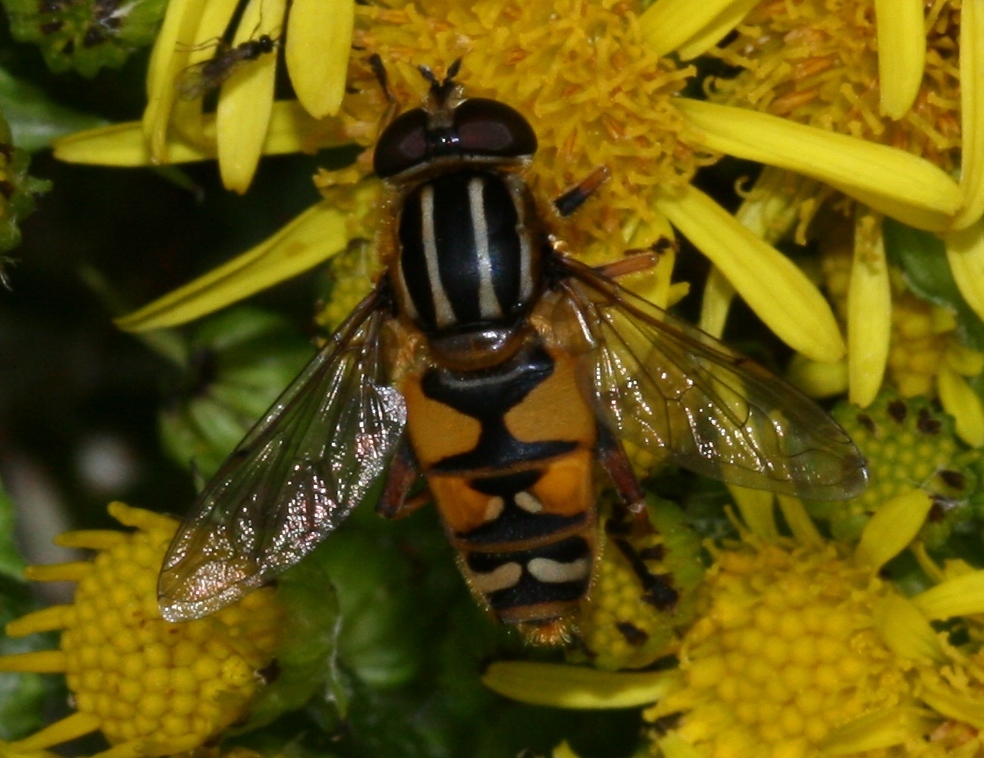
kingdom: Animalia
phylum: Arthropoda
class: Insecta
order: Diptera
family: Syrphidae
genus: Helophilus
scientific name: Helophilus pendulus
